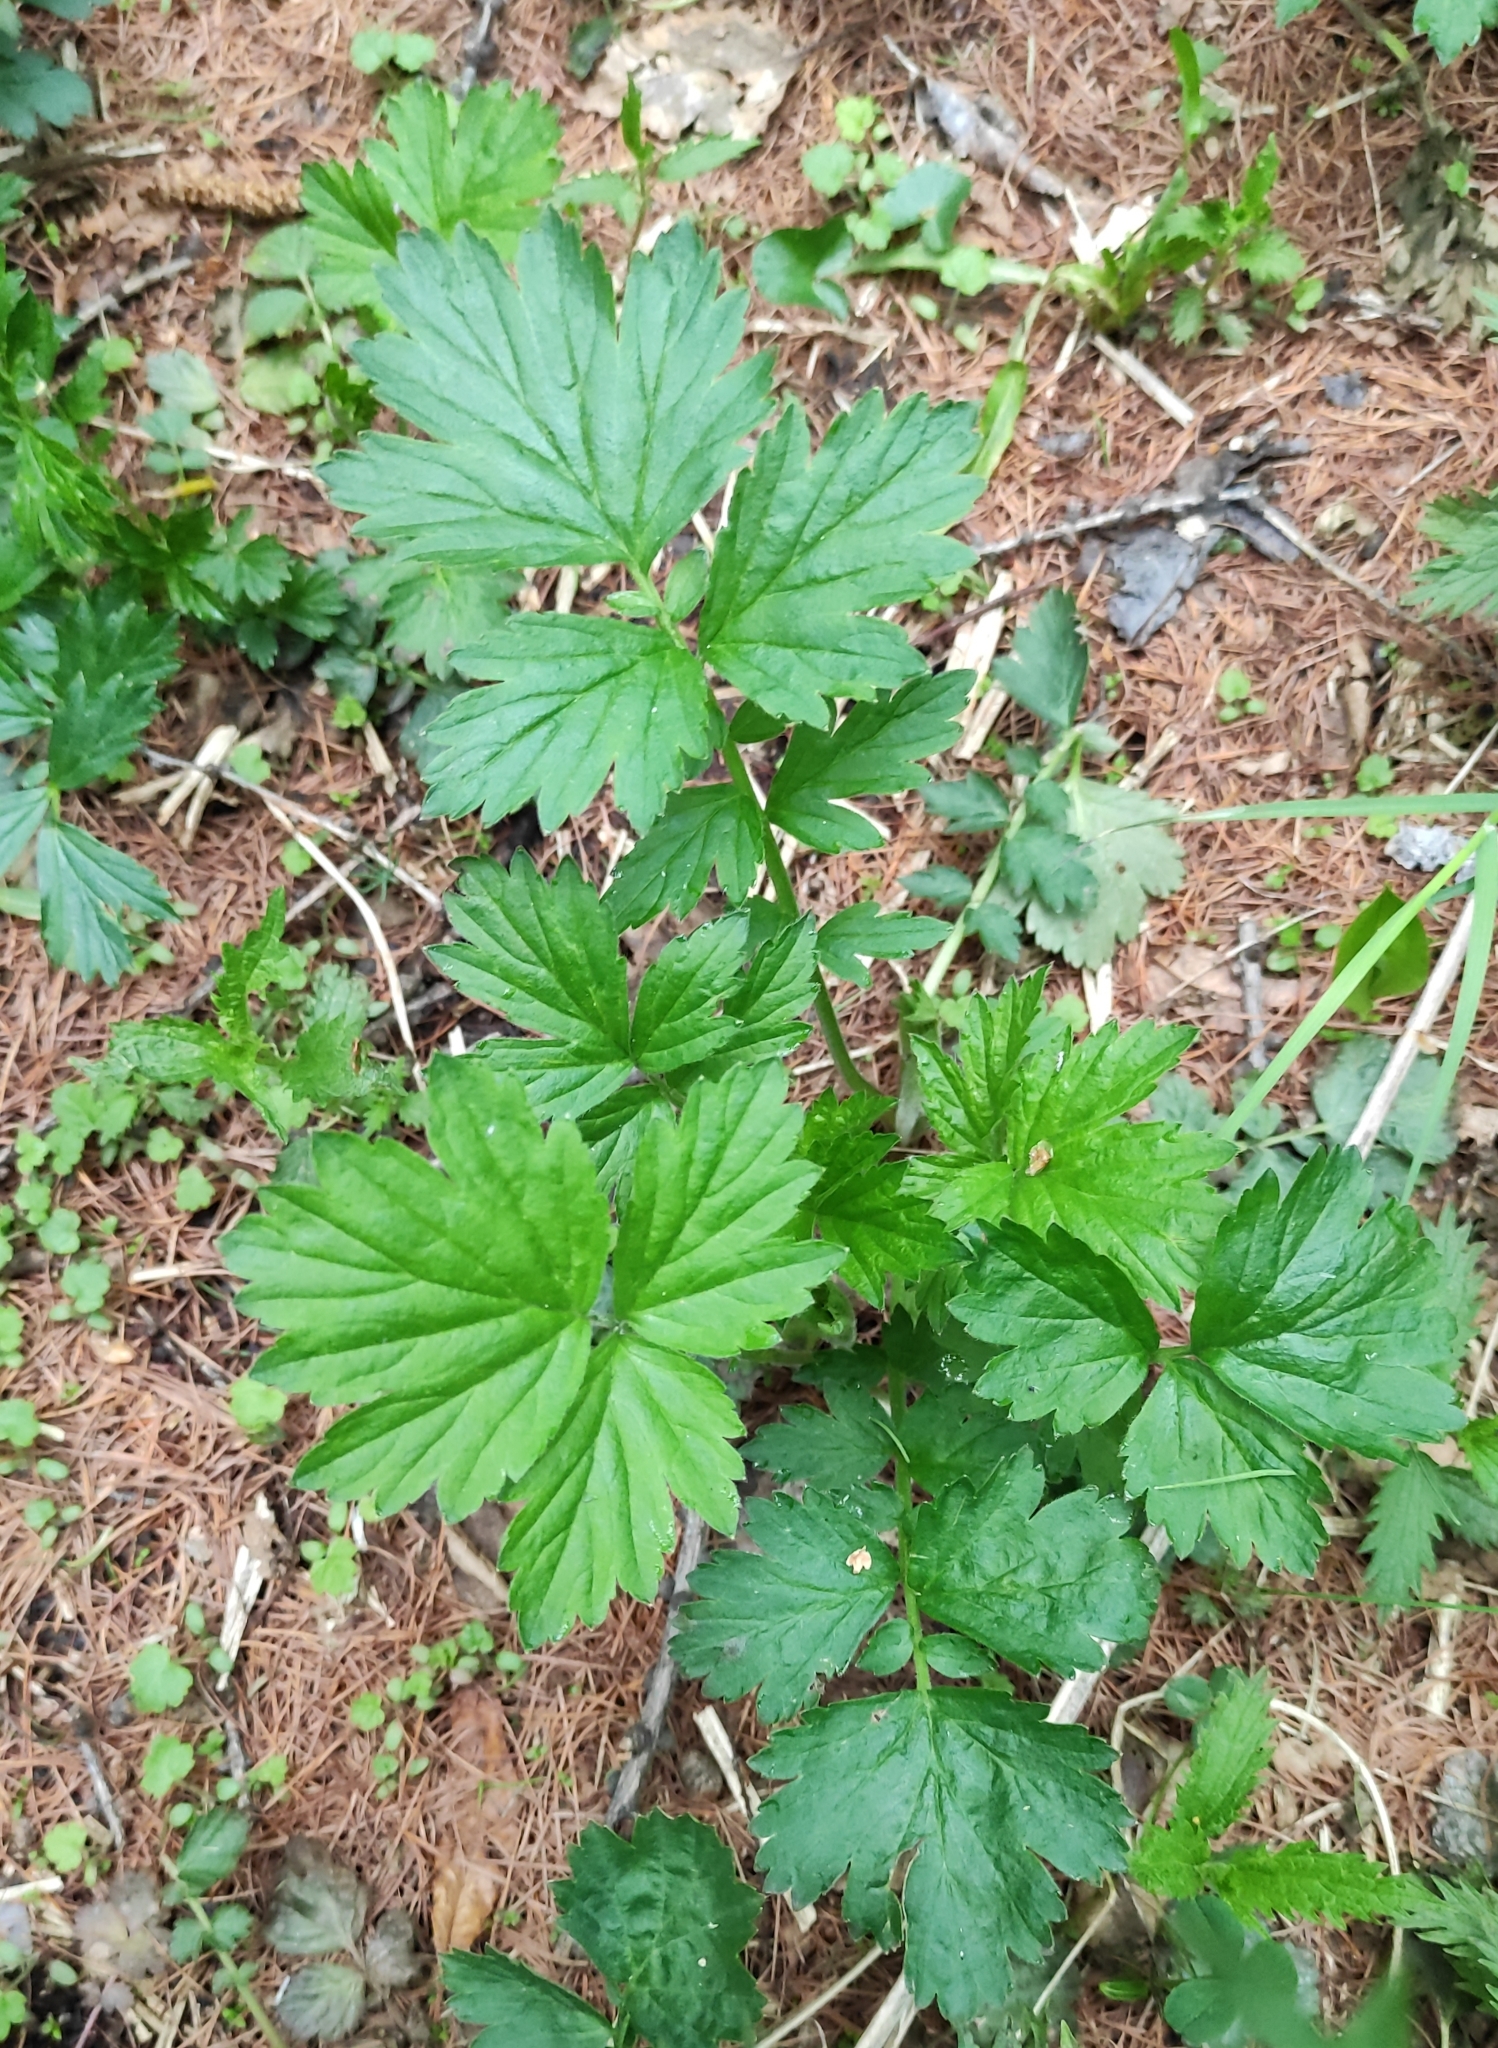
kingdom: Plantae
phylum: Tracheophyta
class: Magnoliopsida
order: Rosales
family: Rosaceae
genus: Geum
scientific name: Geum aleppicum
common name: Yellow avens
